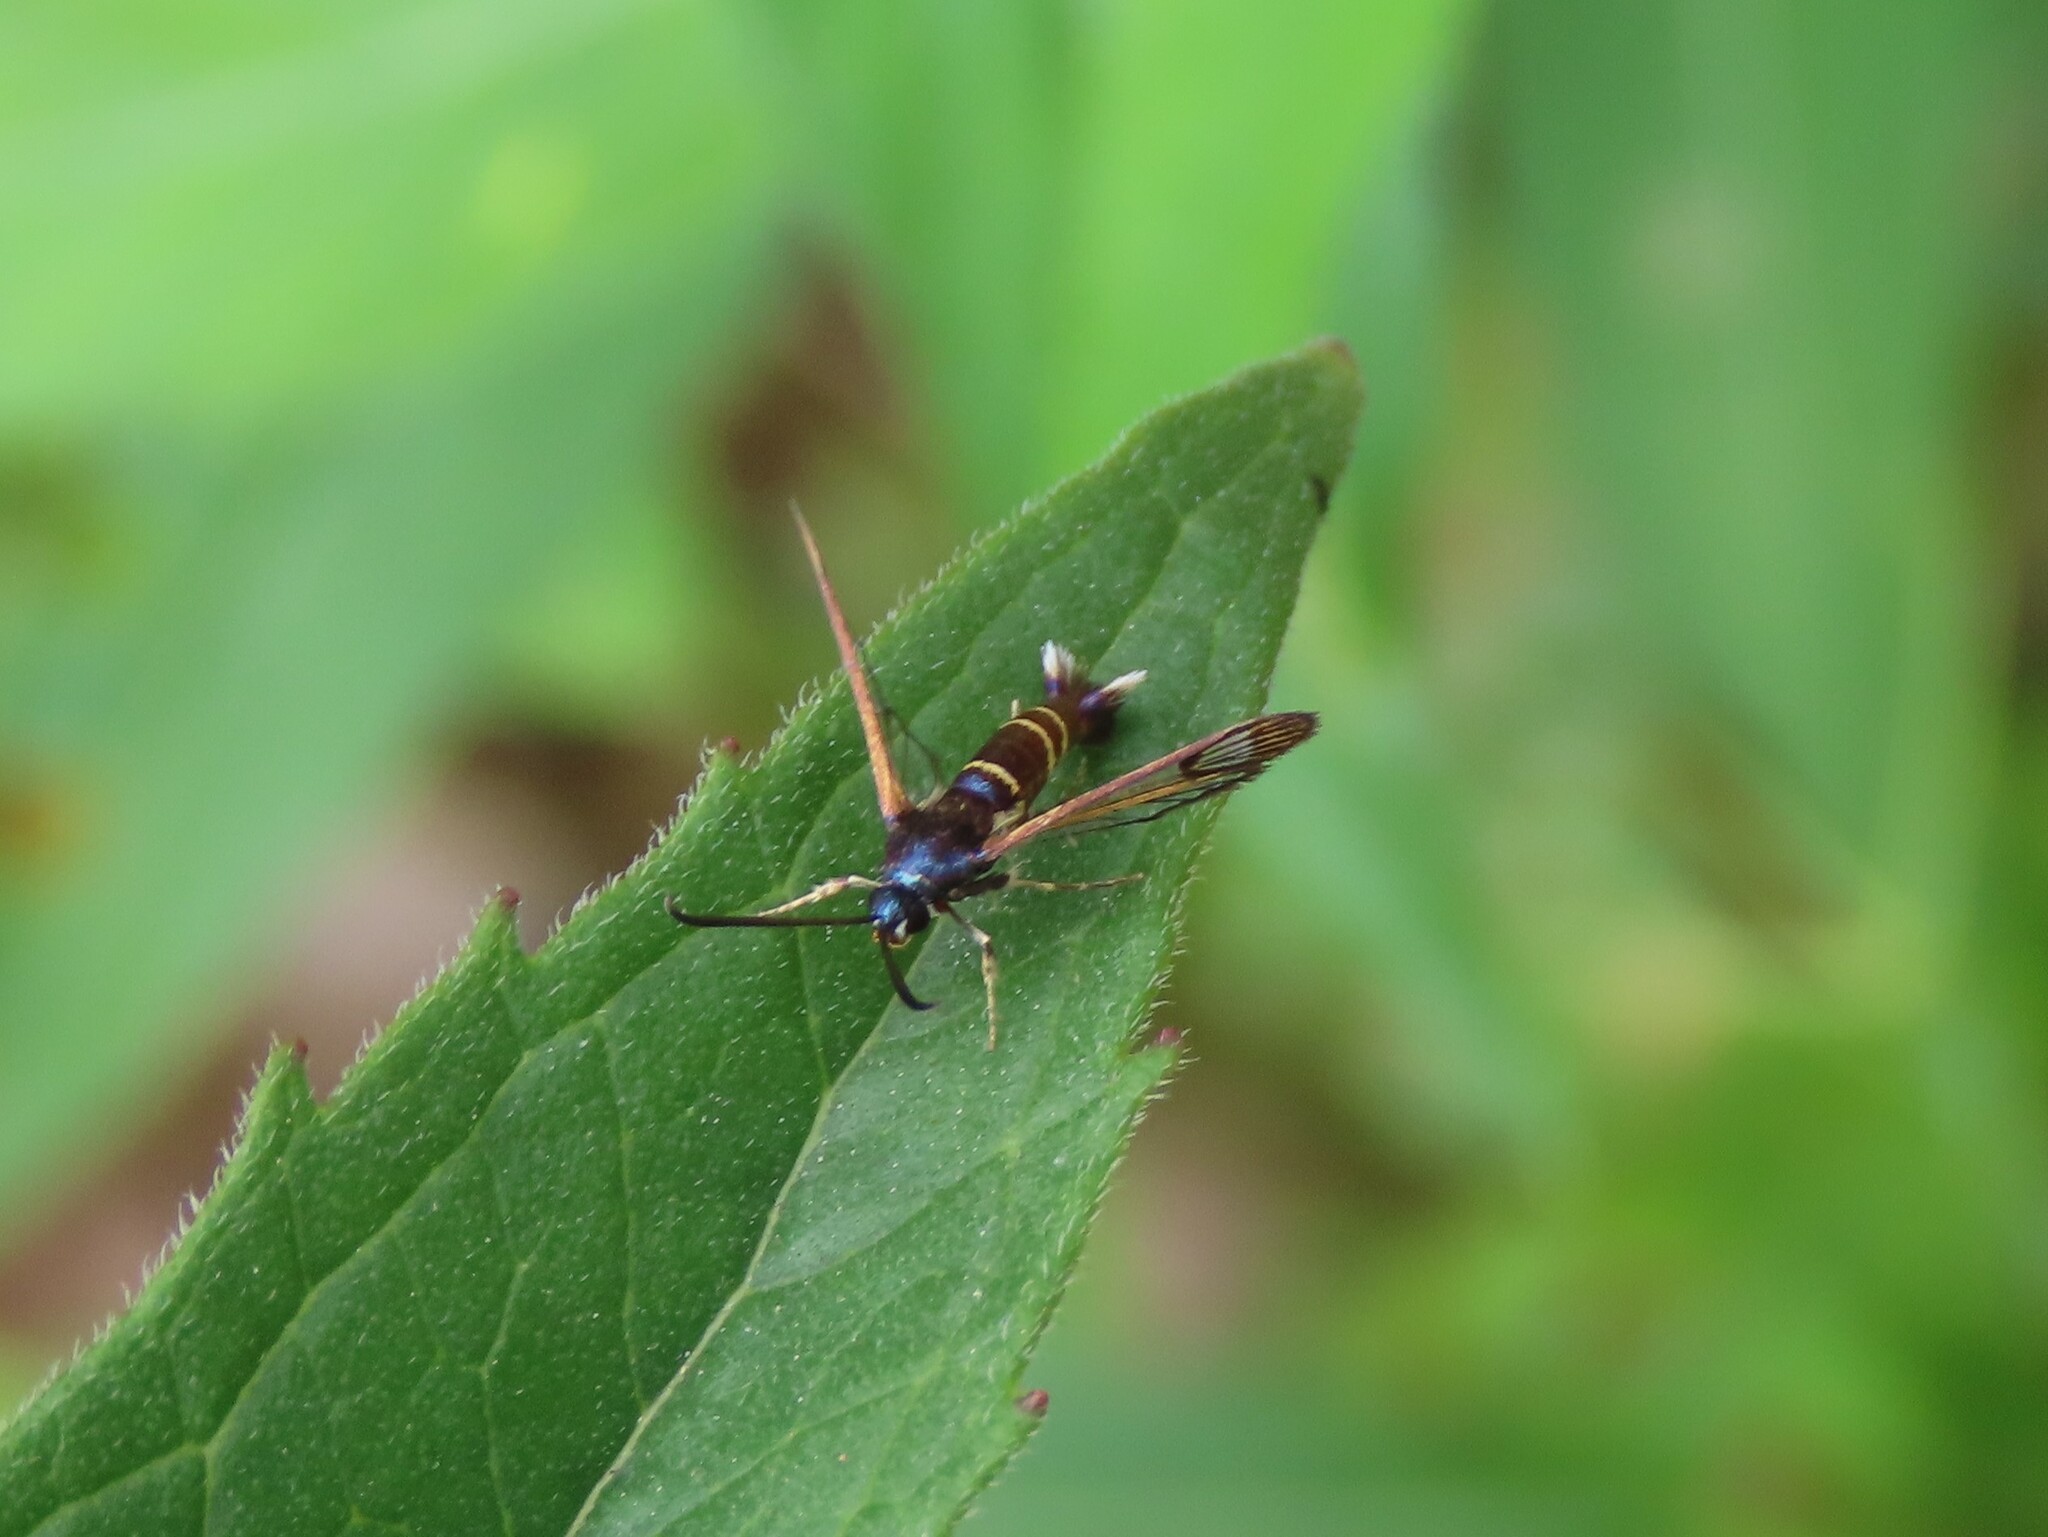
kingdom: Animalia
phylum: Arthropoda
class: Insecta
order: Lepidoptera
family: Sesiidae
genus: Synanthedon
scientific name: Synanthedon rhododendri
